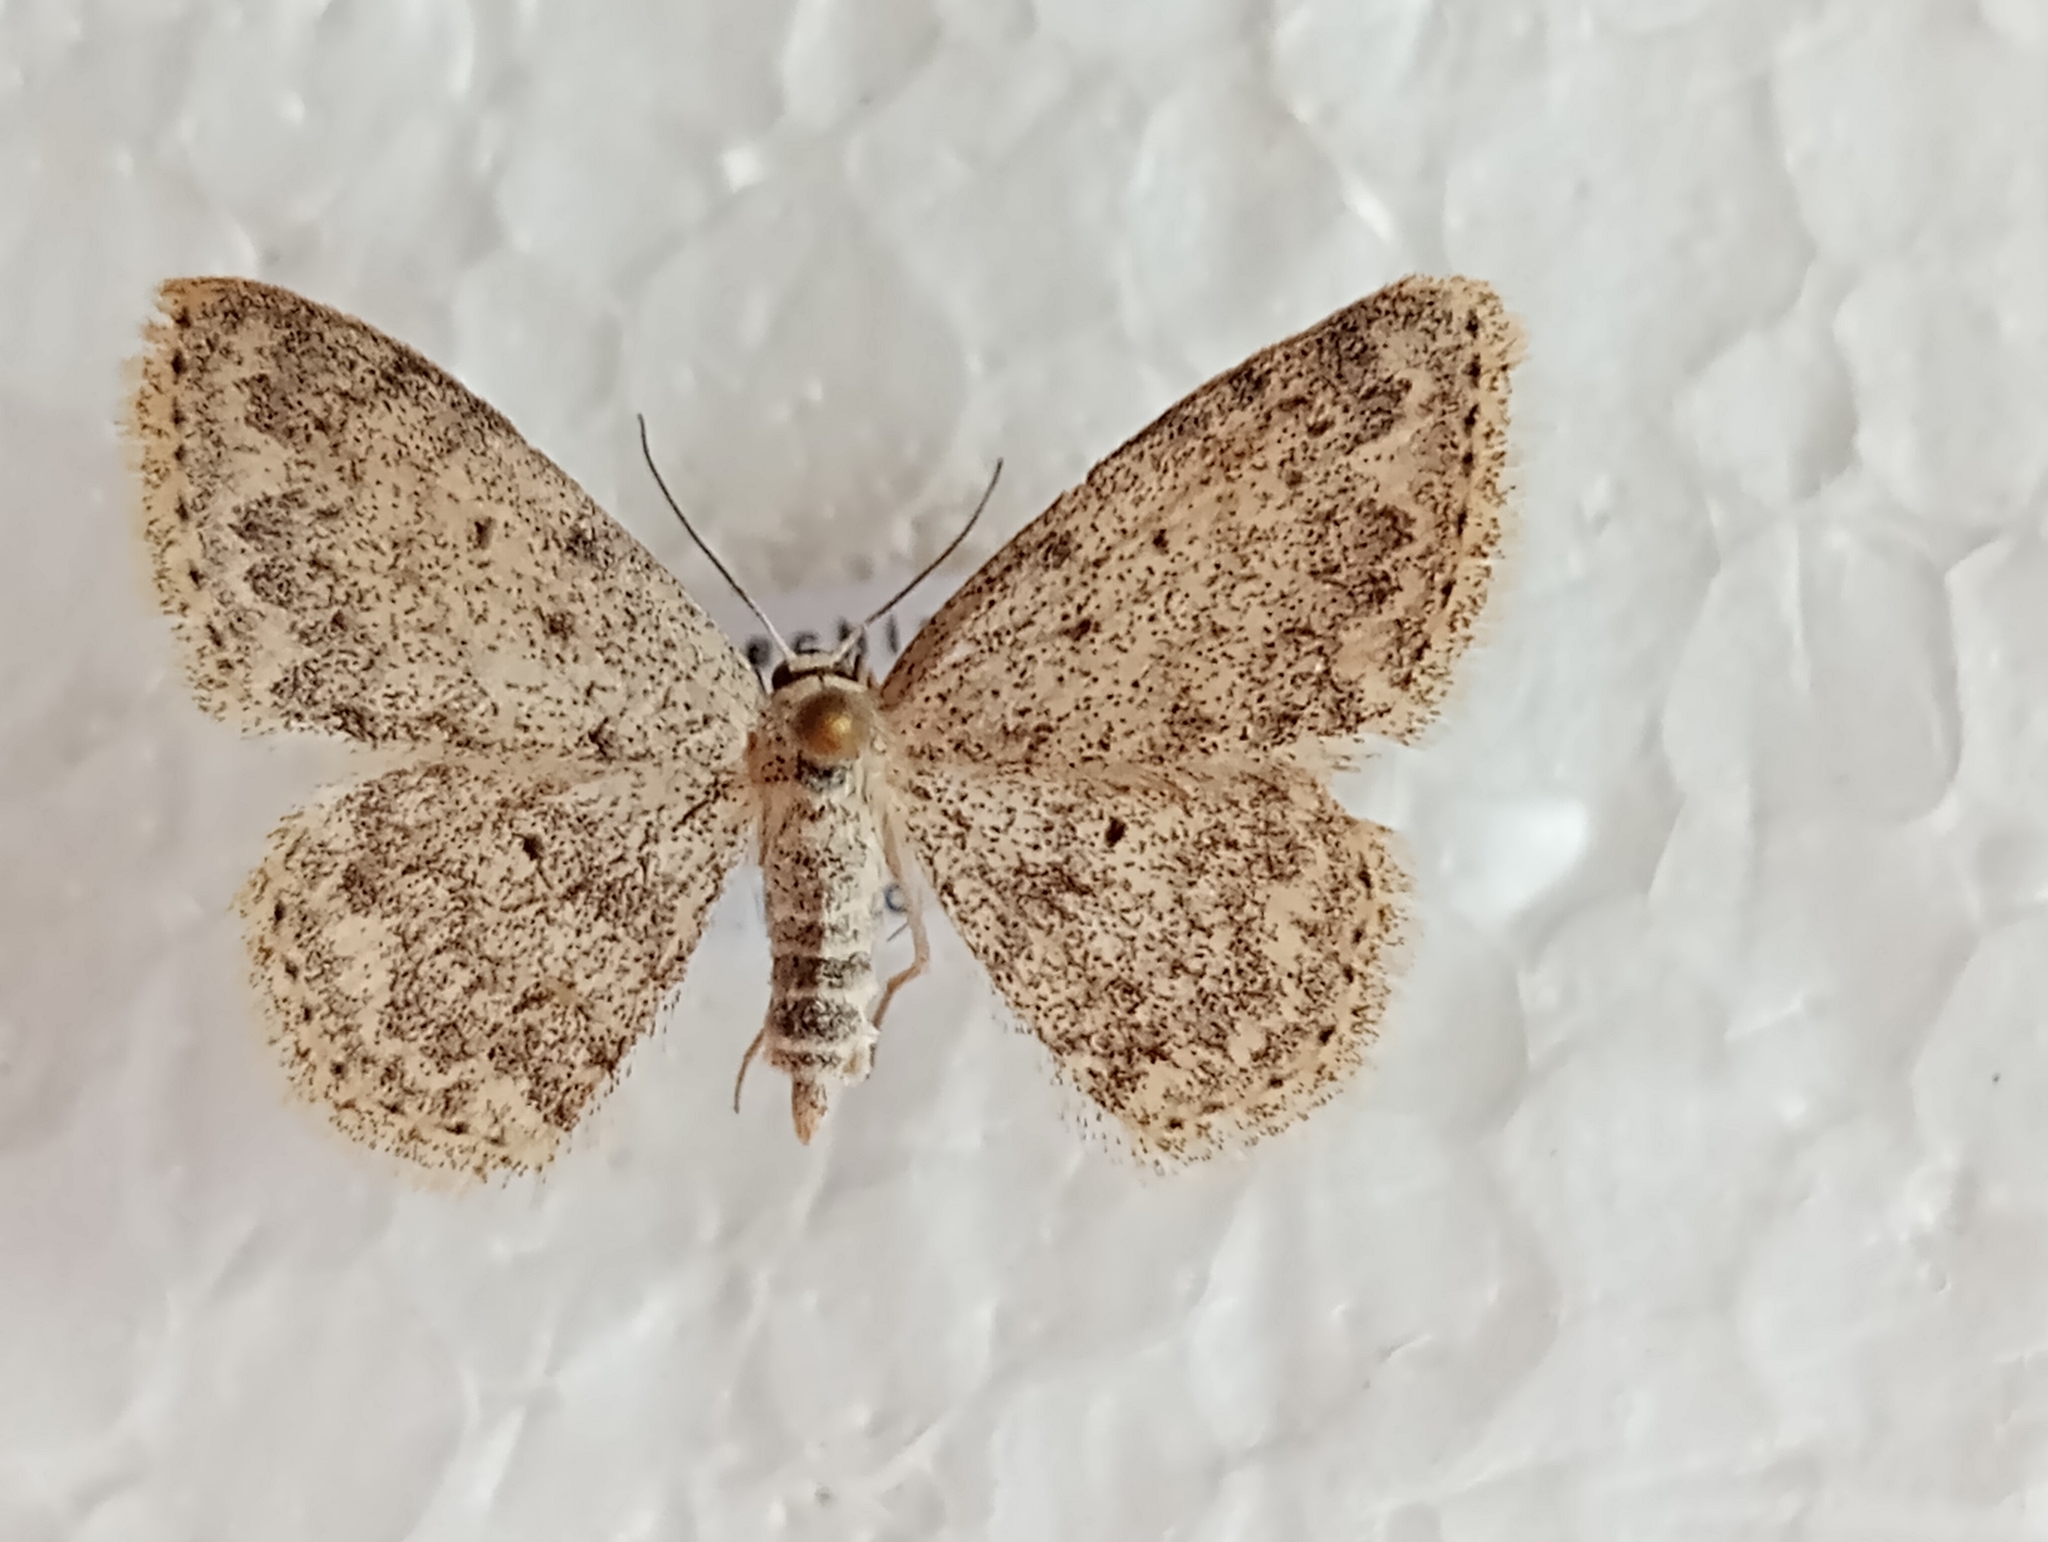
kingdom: Animalia
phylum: Arthropoda
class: Insecta
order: Lepidoptera
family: Geometridae
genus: Scopula
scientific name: Scopula marginepunctata
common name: Mullein wave
